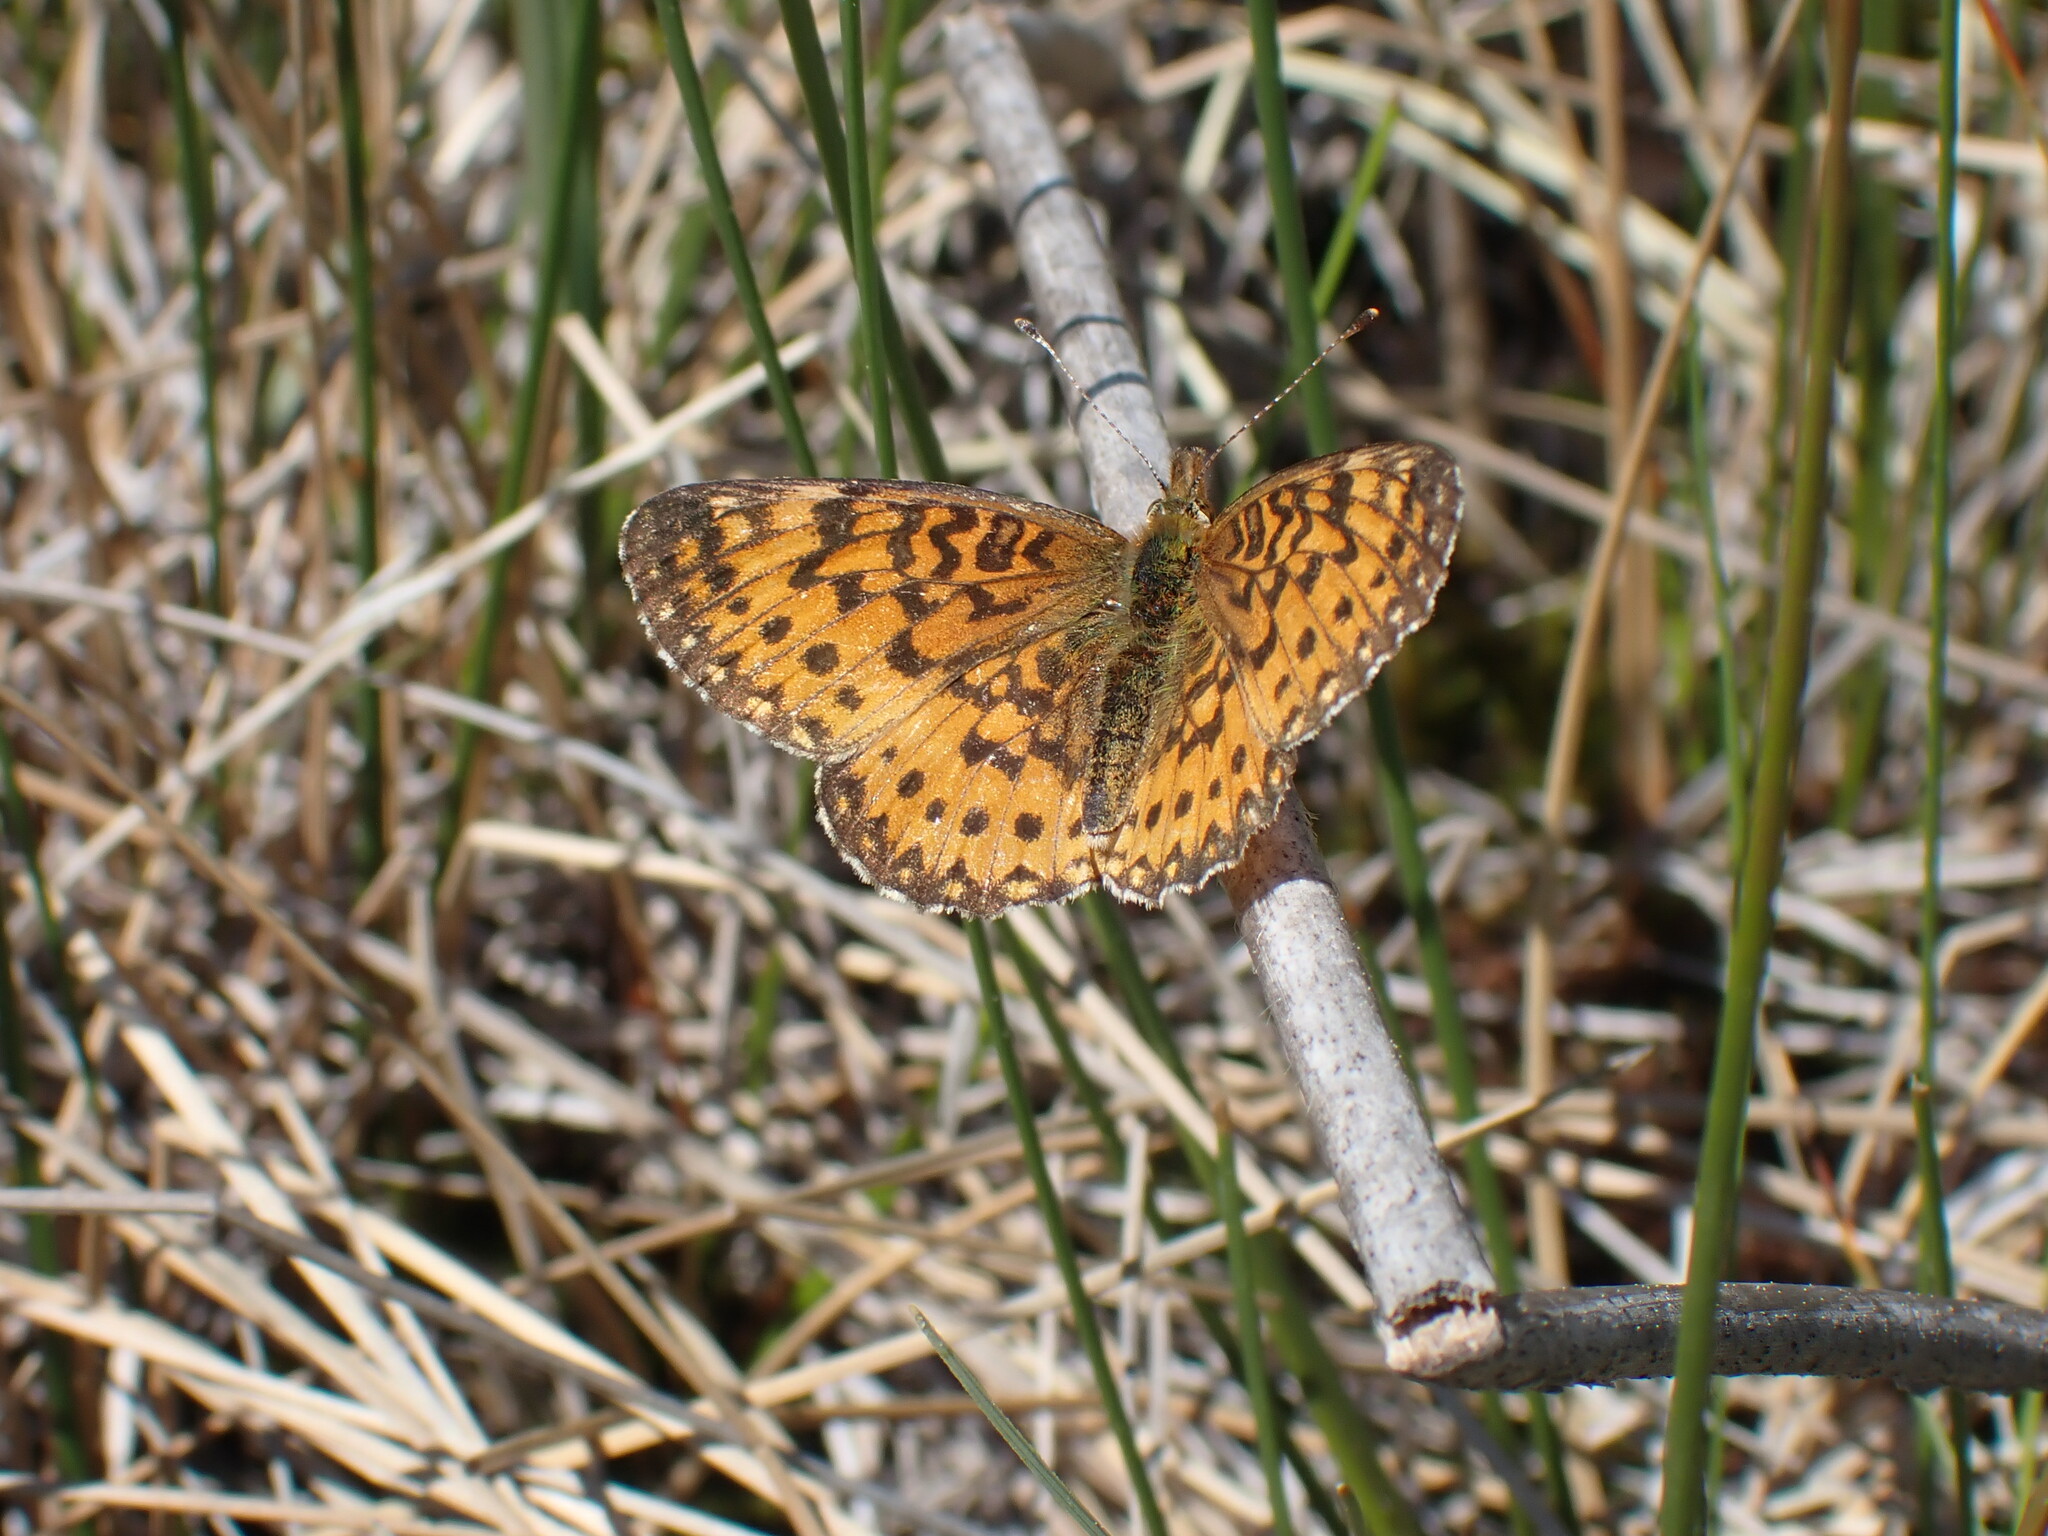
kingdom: Animalia
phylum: Arthropoda
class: Insecta
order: Lepidoptera
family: Nymphalidae
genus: Boloria
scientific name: Boloria
